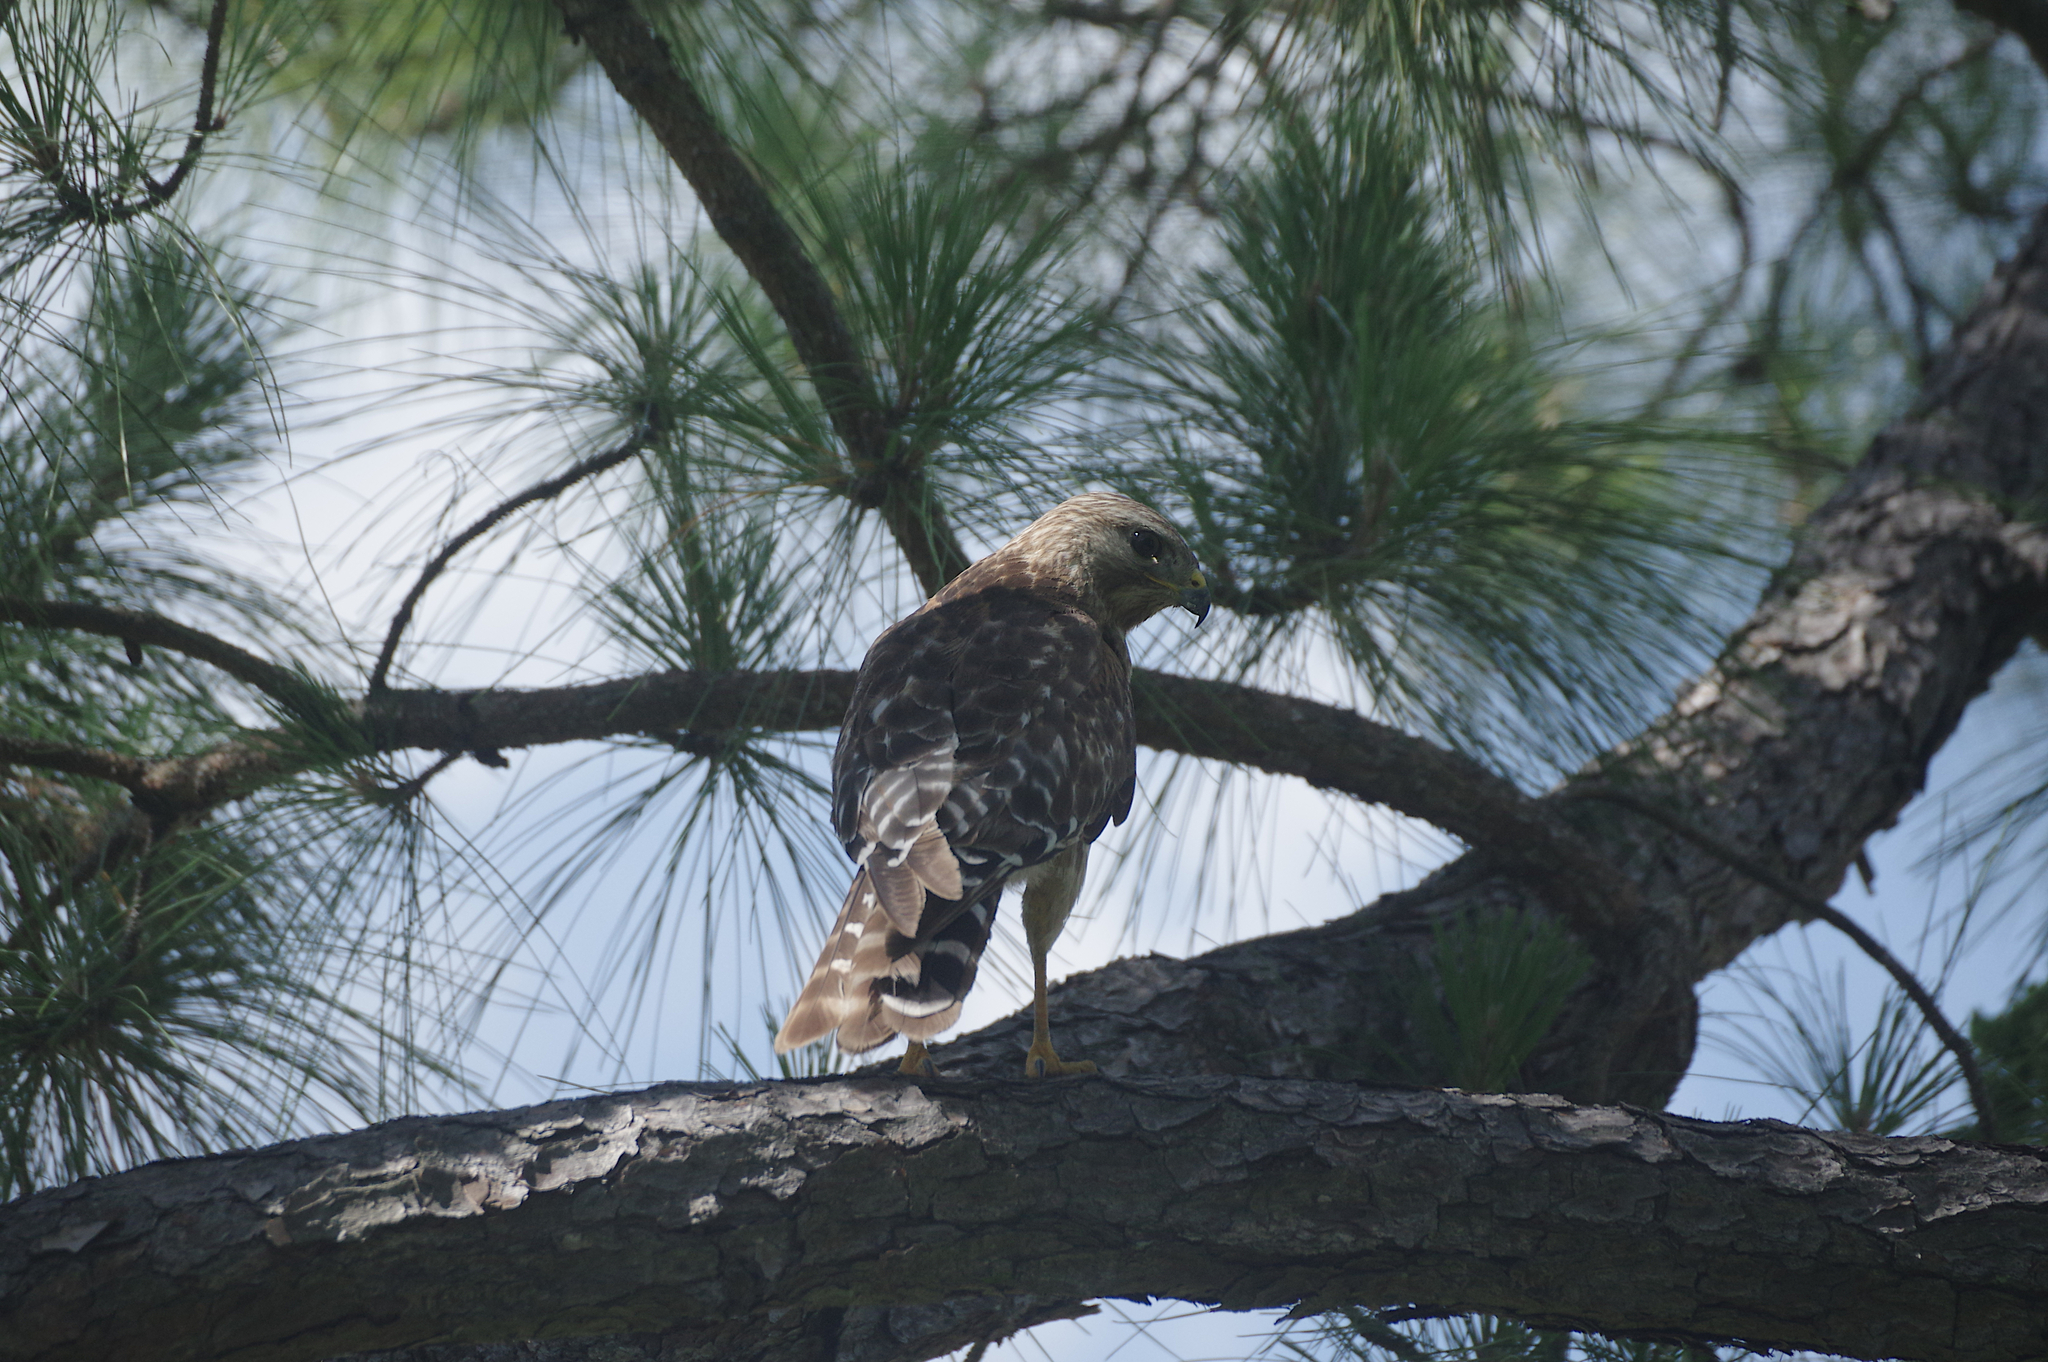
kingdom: Animalia
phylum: Chordata
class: Aves
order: Accipitriformes
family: Accipitridae
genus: Buteo
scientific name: Buteo lineatus
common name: Red-shouldered hawk
